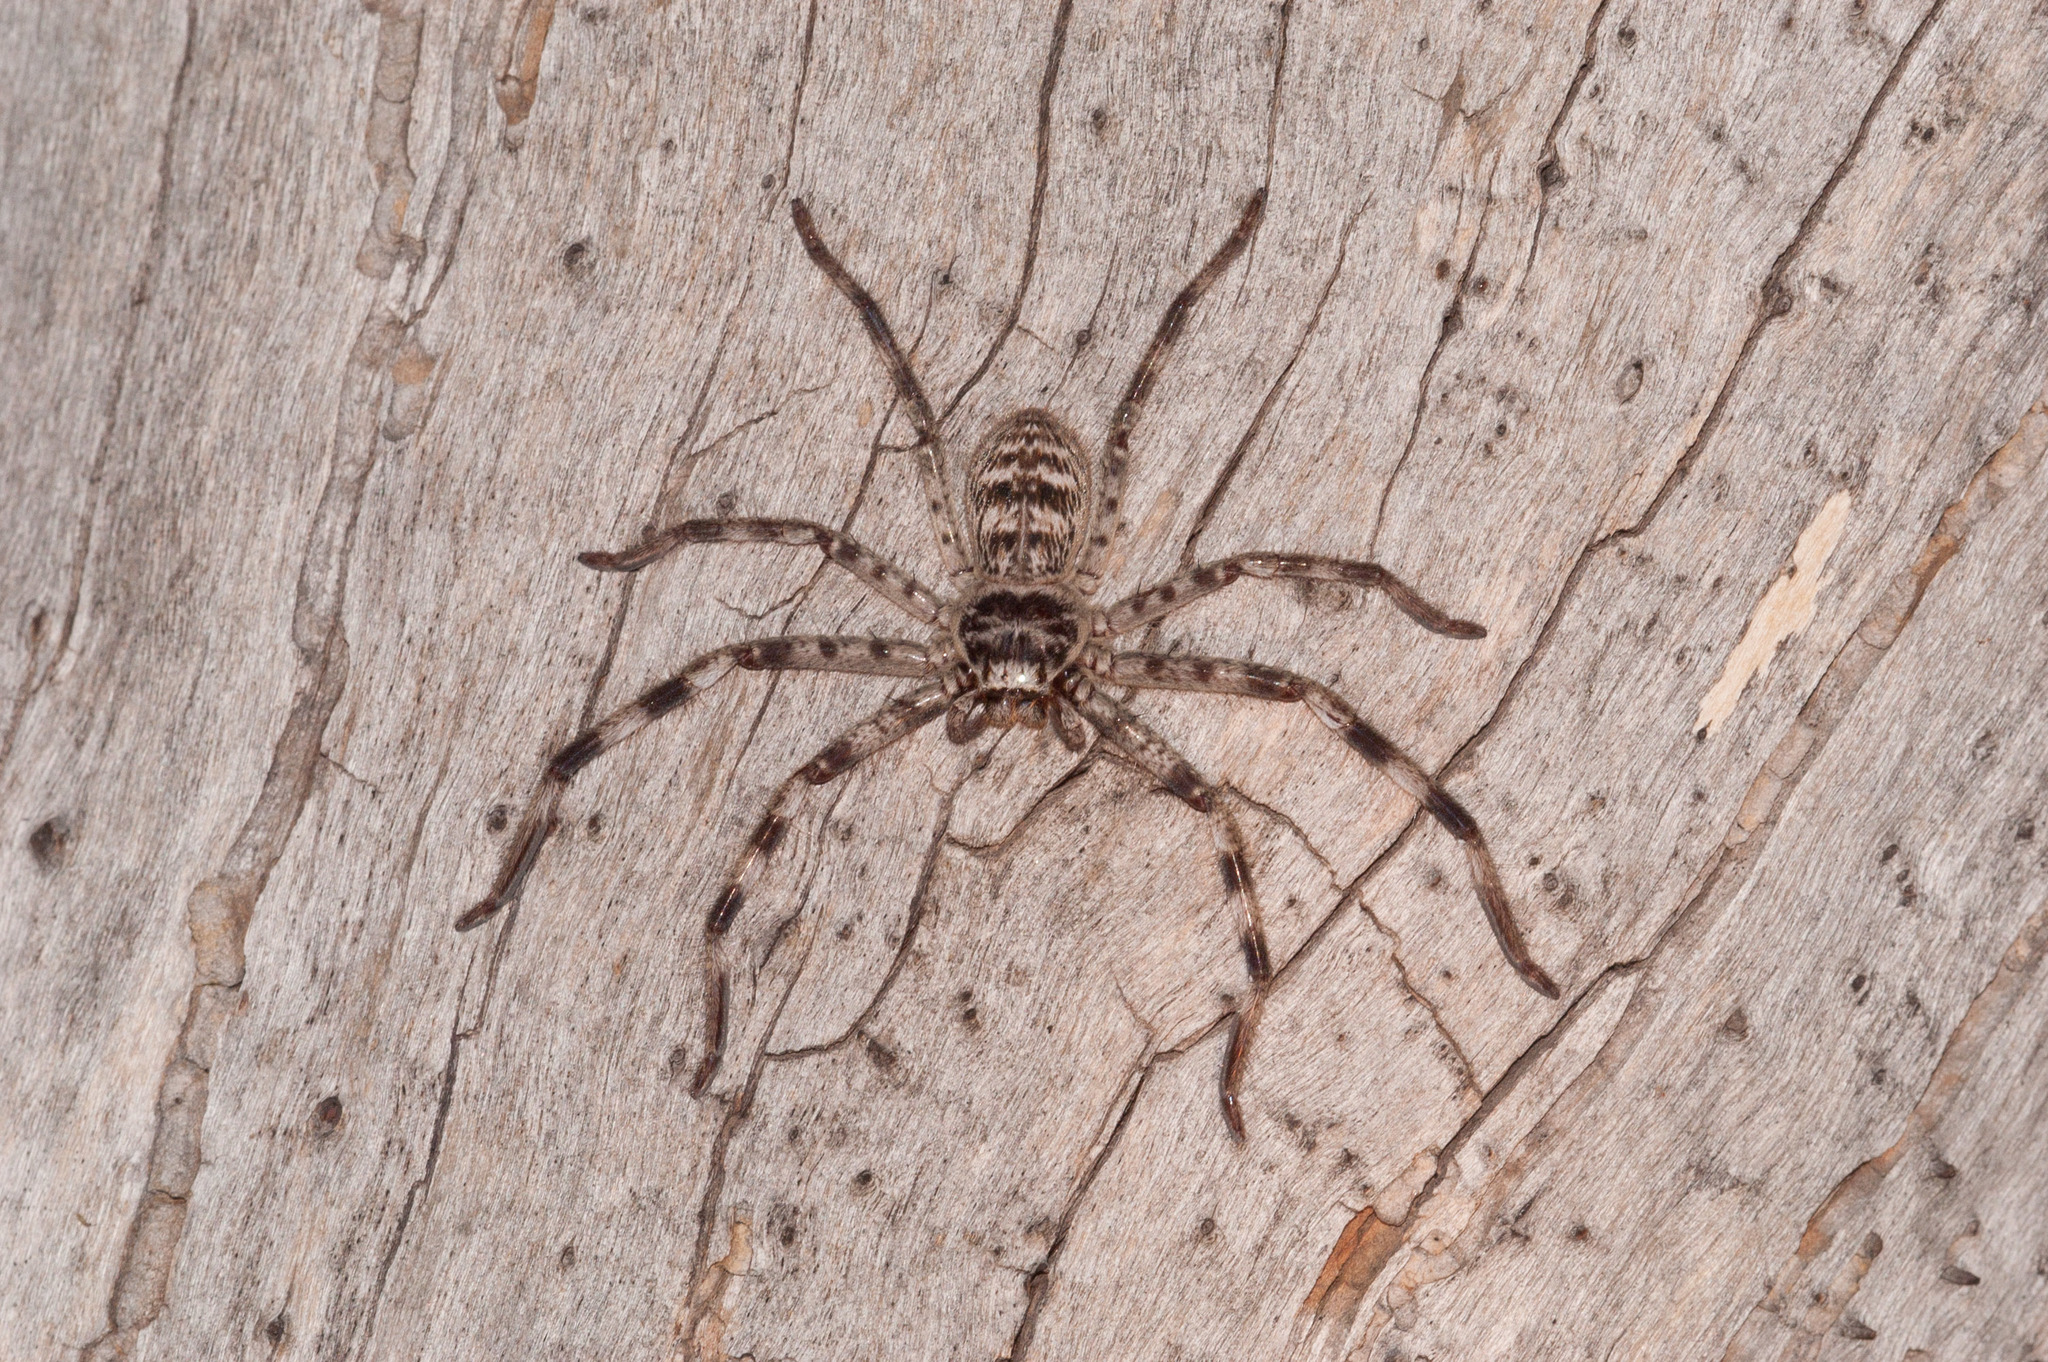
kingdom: Animalia
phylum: Arthropoda
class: Arachnida
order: Araneae
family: Sparassidae
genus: Holconia
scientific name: Holconia flindersi
